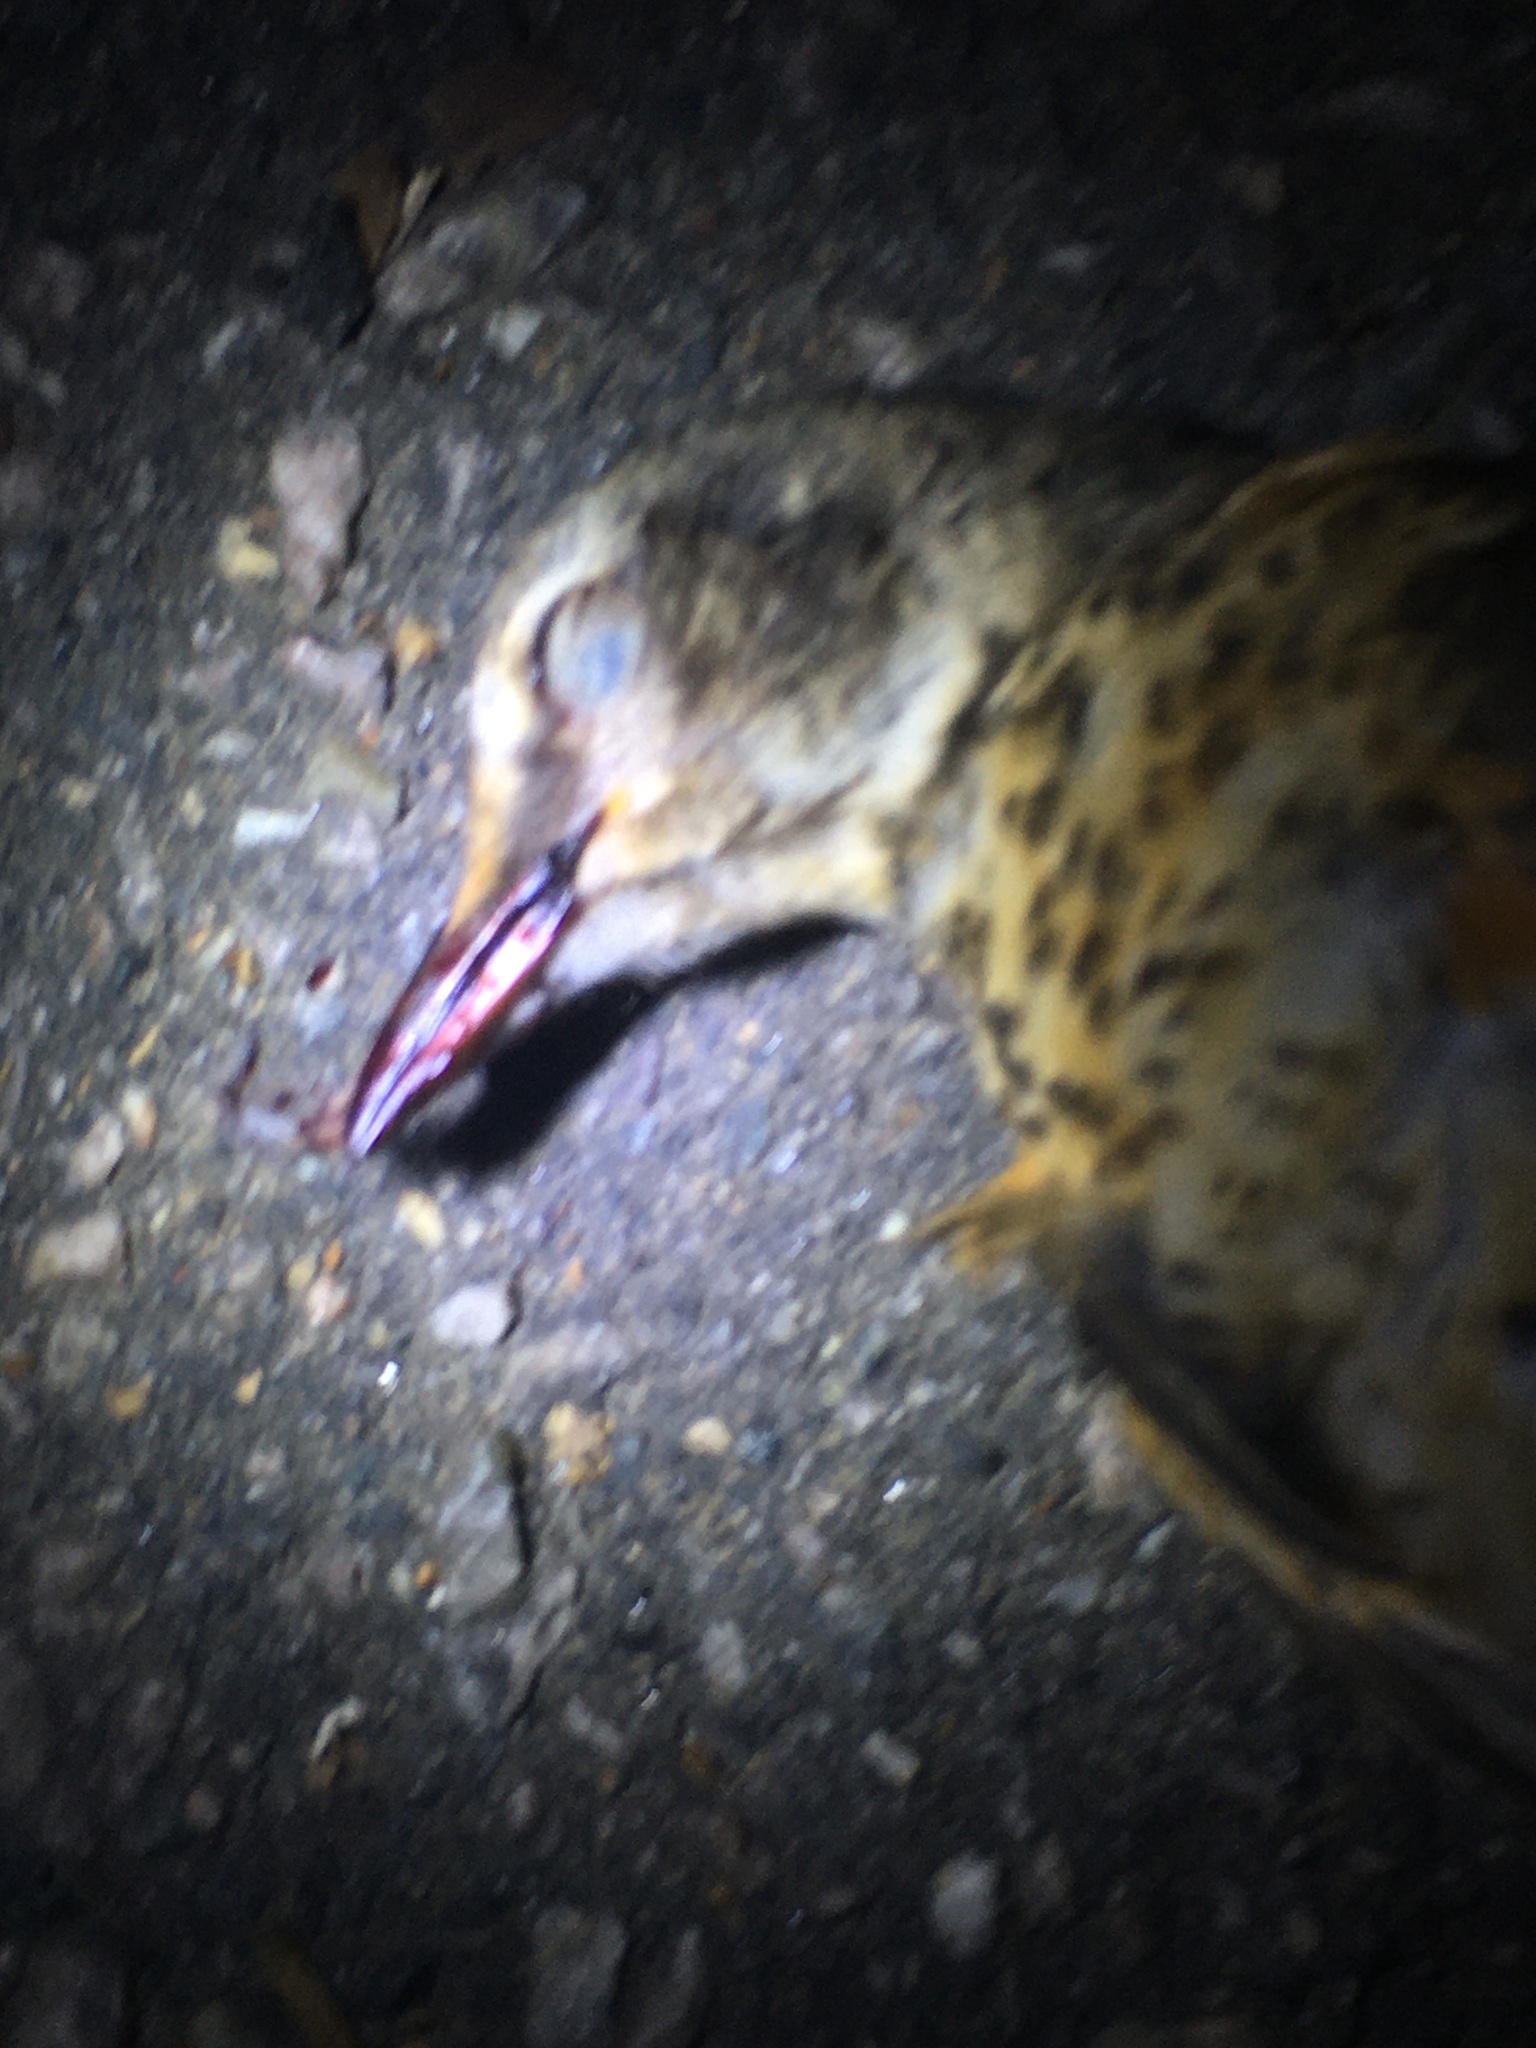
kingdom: Animalia
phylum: Chordata
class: Aves
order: Passeriformes
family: Turdidae
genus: Turdus
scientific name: Turdus migratorius
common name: American robin
